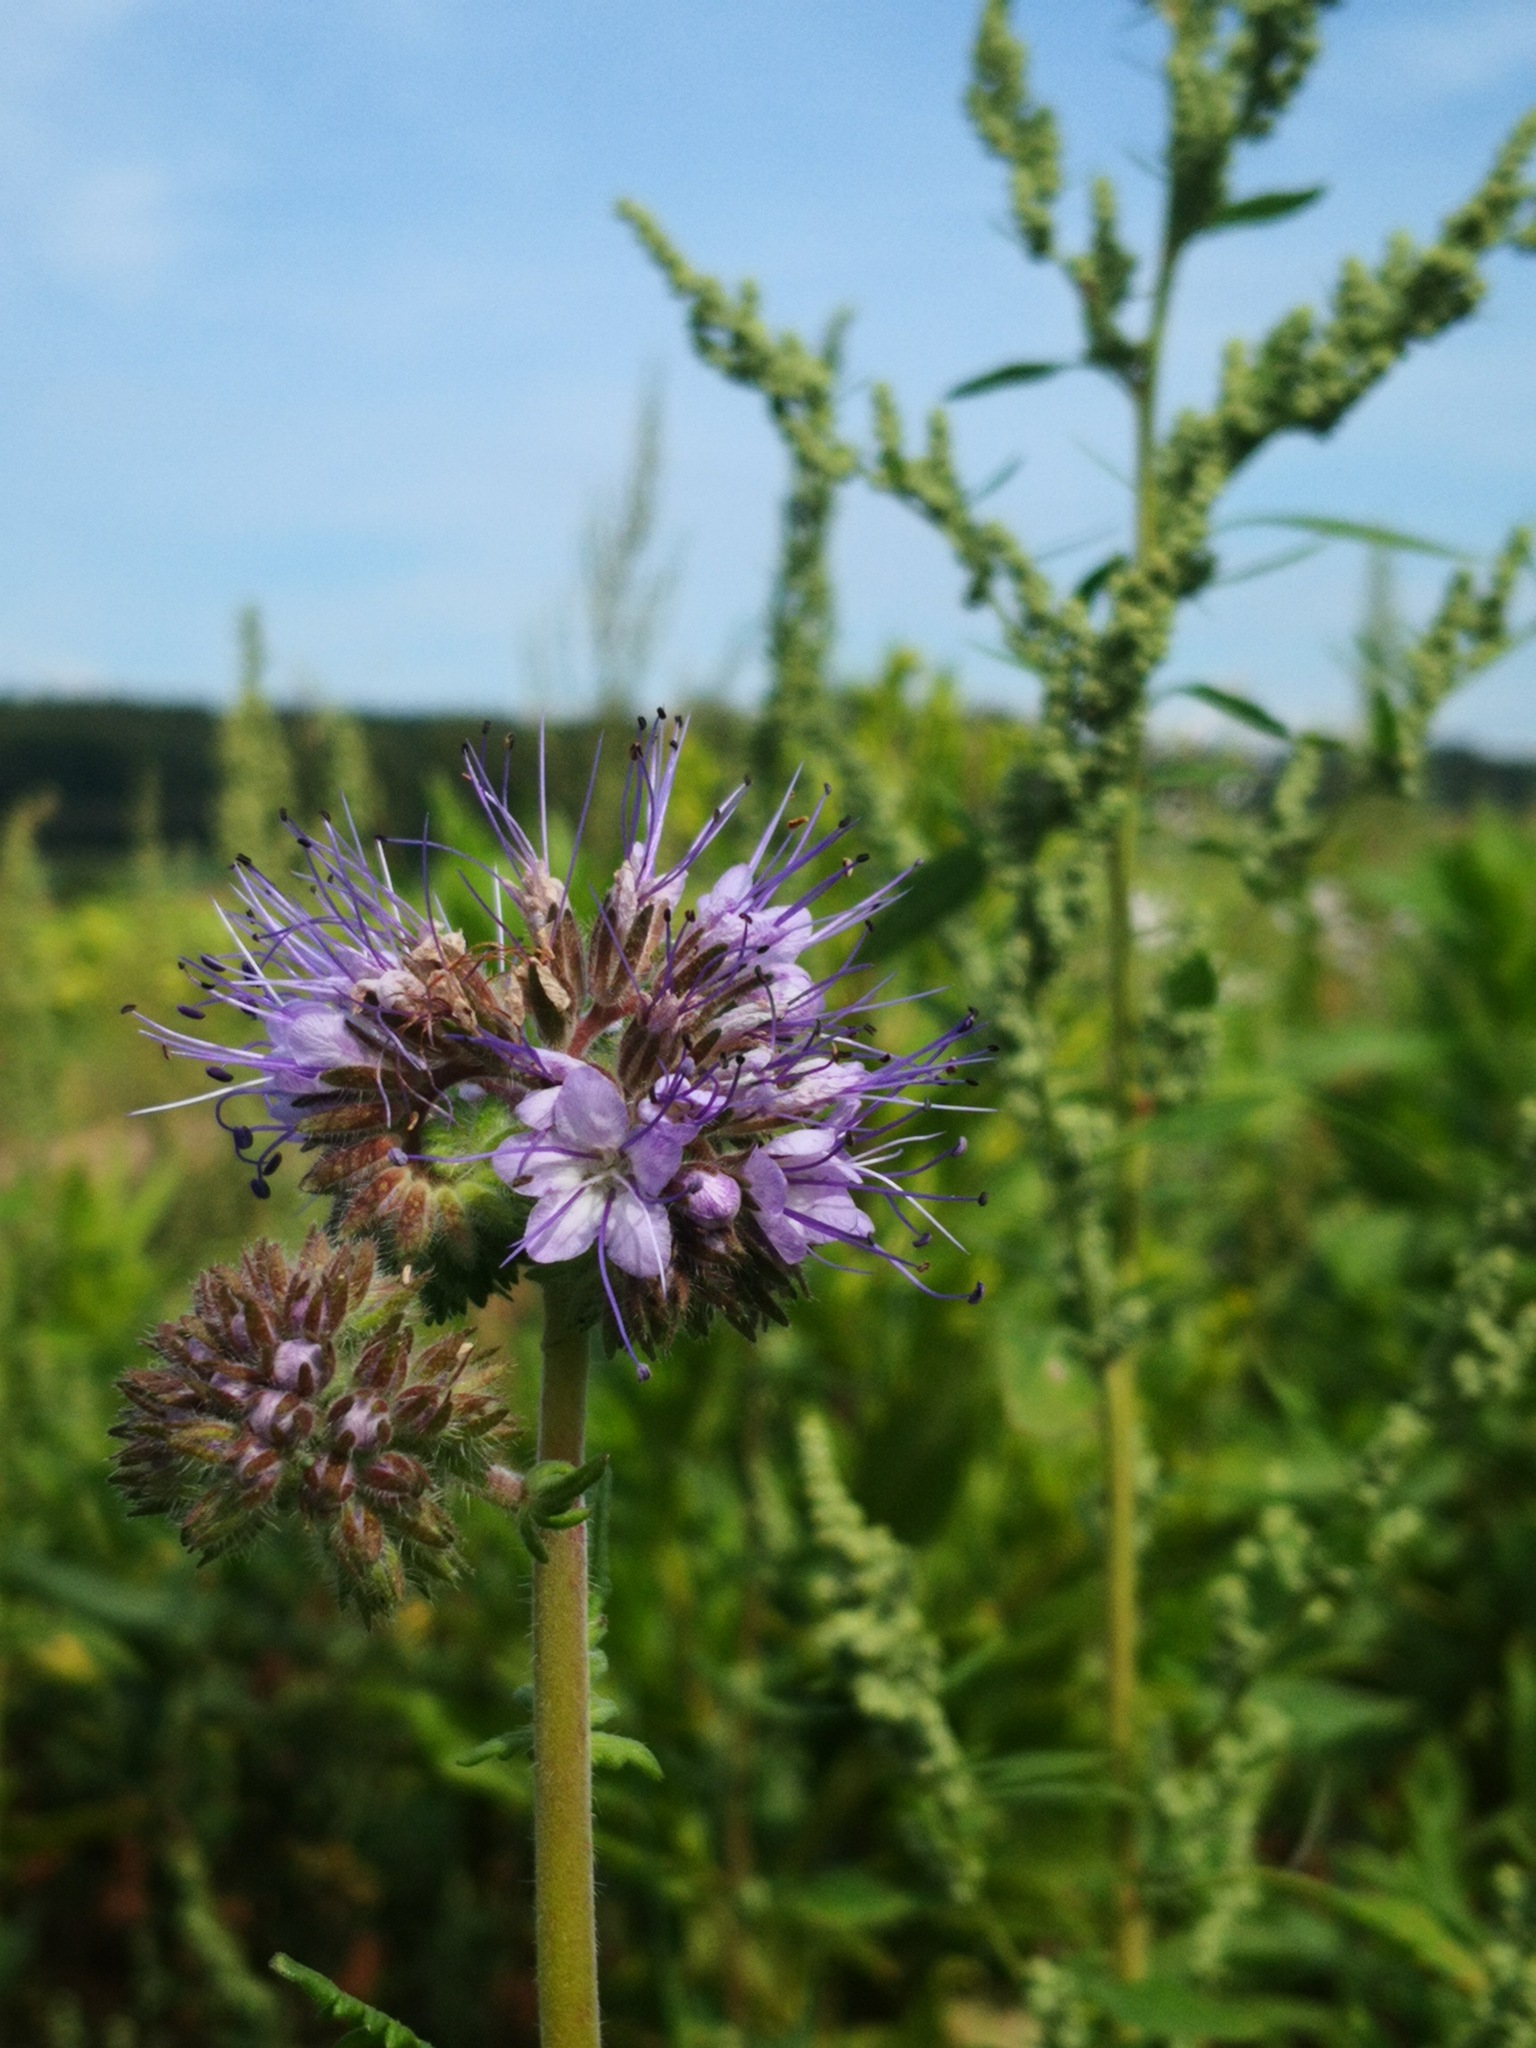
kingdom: Plantae
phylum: Tracheophyta
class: Magnoliopsida
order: Boraginales
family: Hydrophyllaceae
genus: Phacelia
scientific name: Phacelia tanacetifolia
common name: Phacelia
